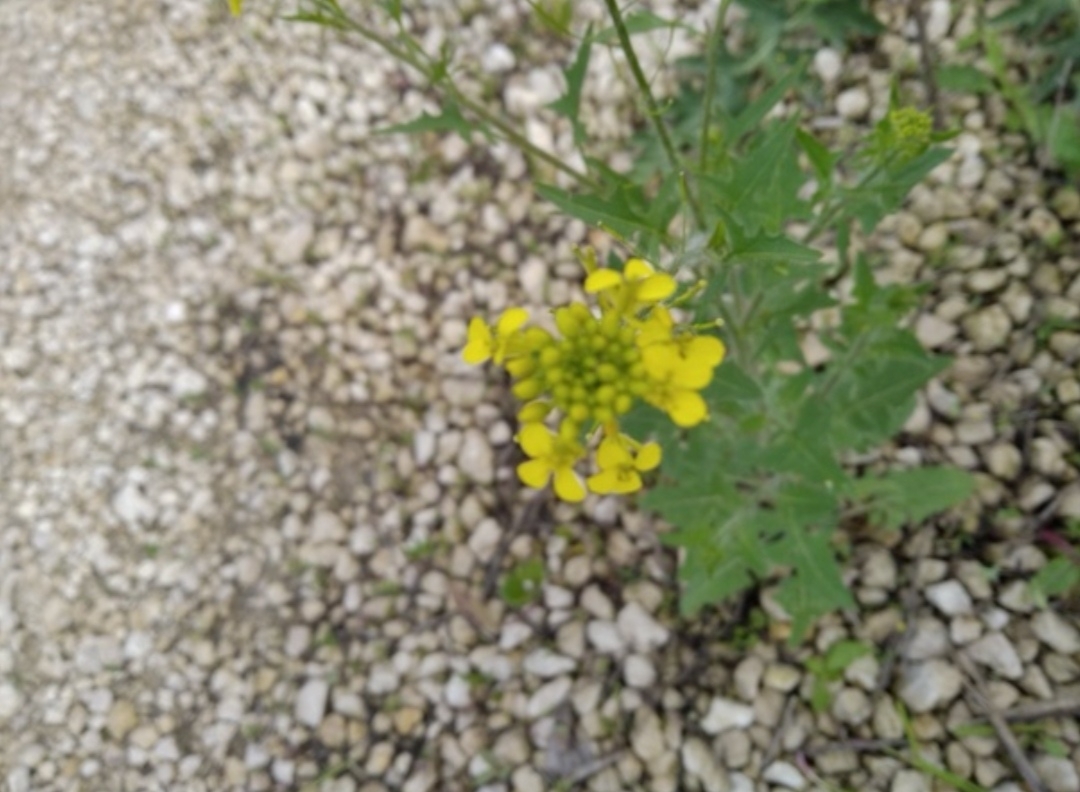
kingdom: Plantae
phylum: Tracheophyta
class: Magnoliopsida
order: Brassicales
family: Brassicaceae
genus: Sisymbrium
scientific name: Sisymbrium loeselii
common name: False london-rocket
